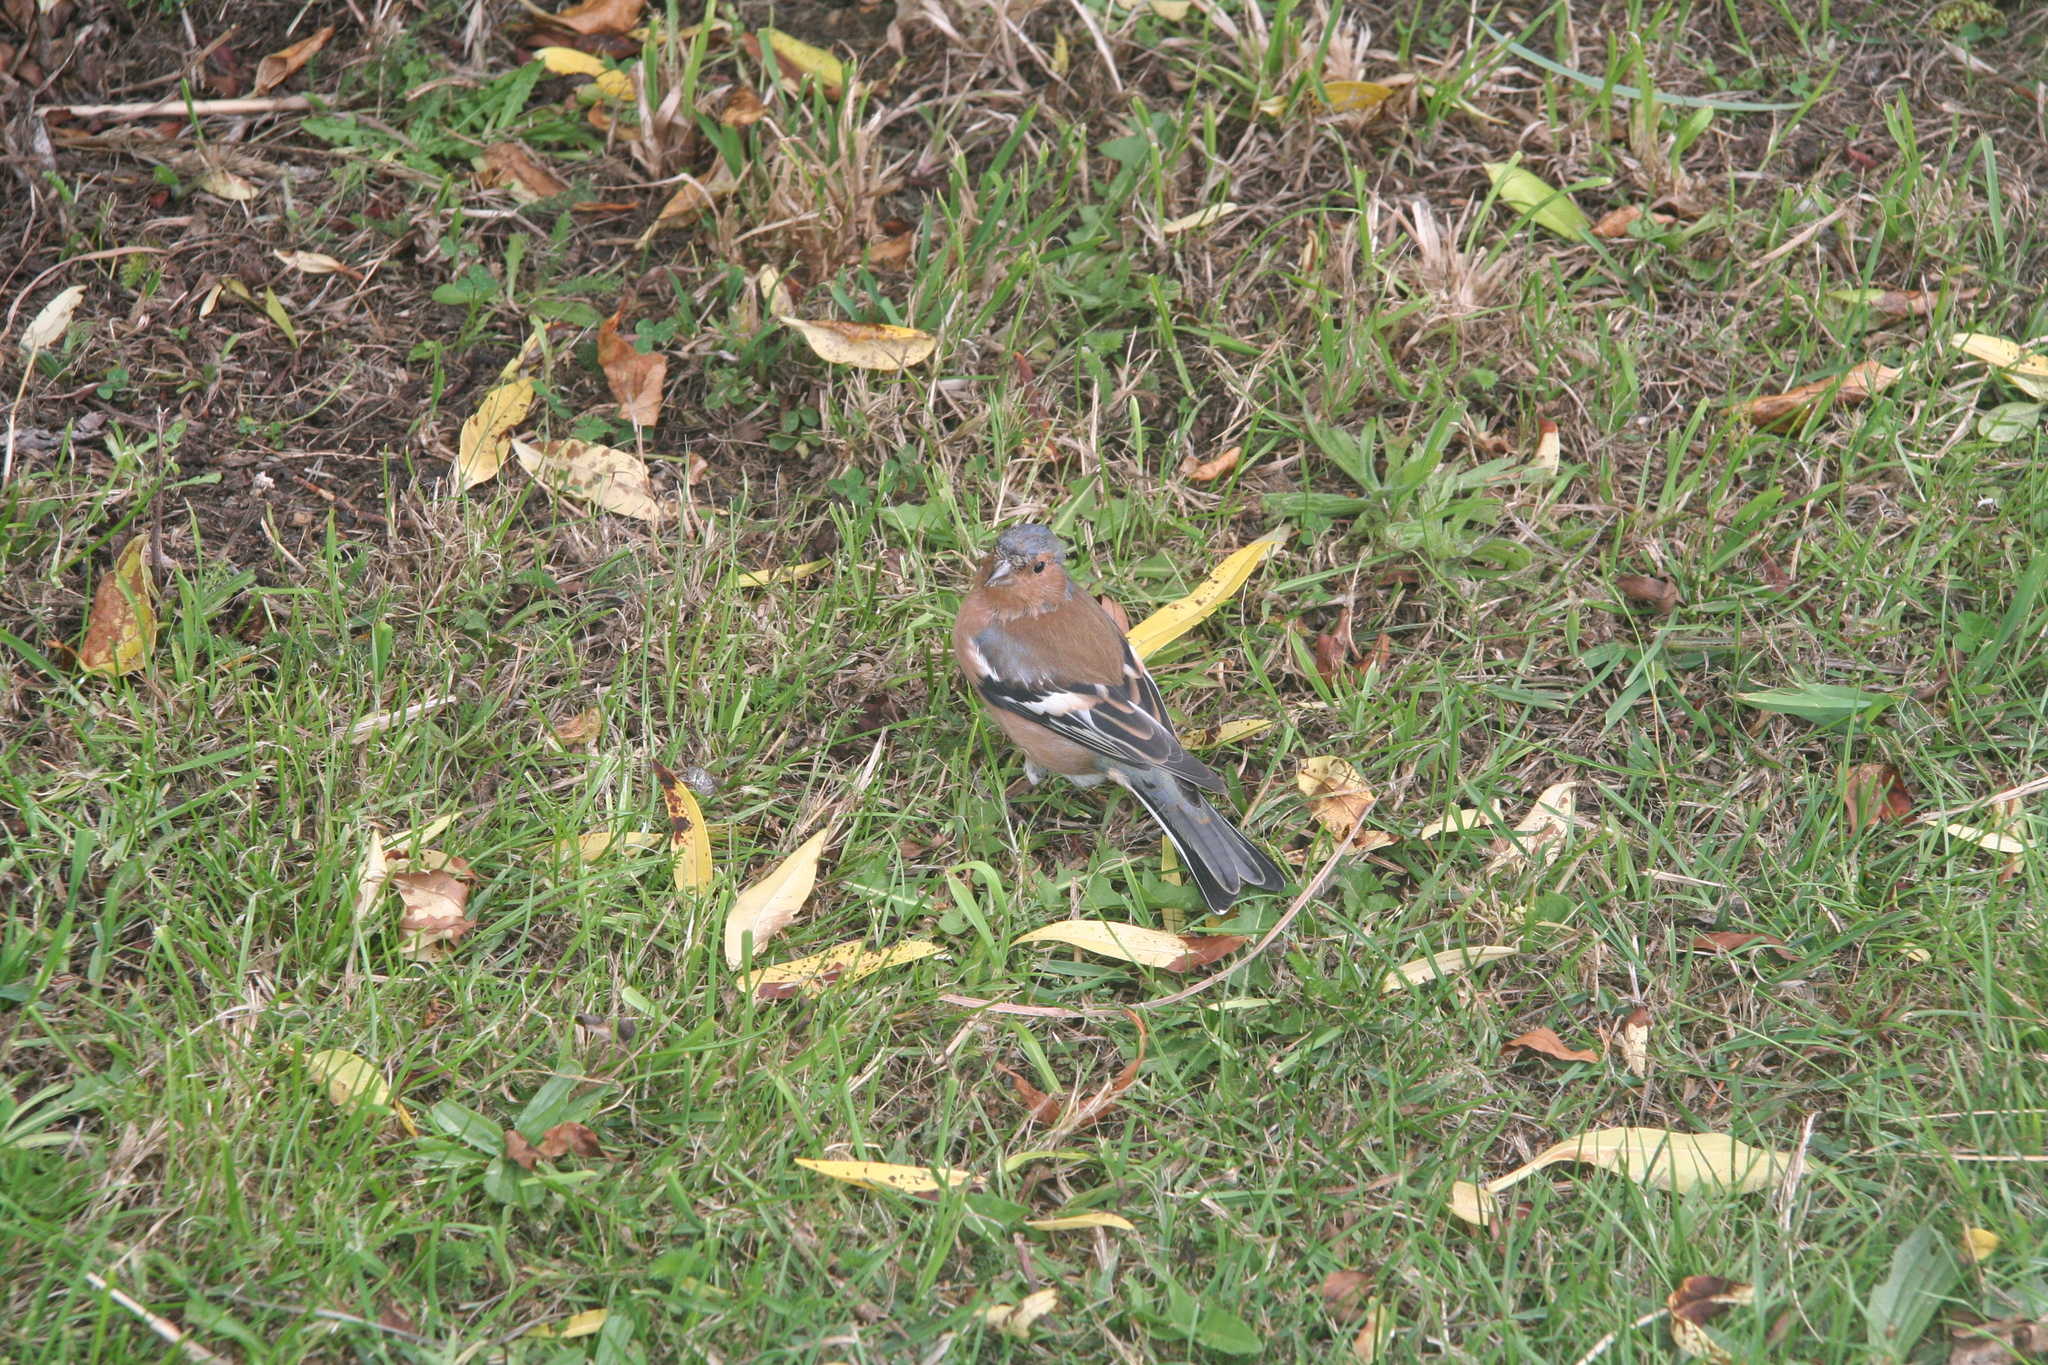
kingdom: Animalia
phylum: Chordata
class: Aves
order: Passeriformes
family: Fringillidae
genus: Fringilla
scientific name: Fringilla coelebs
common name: Common chaffinch
